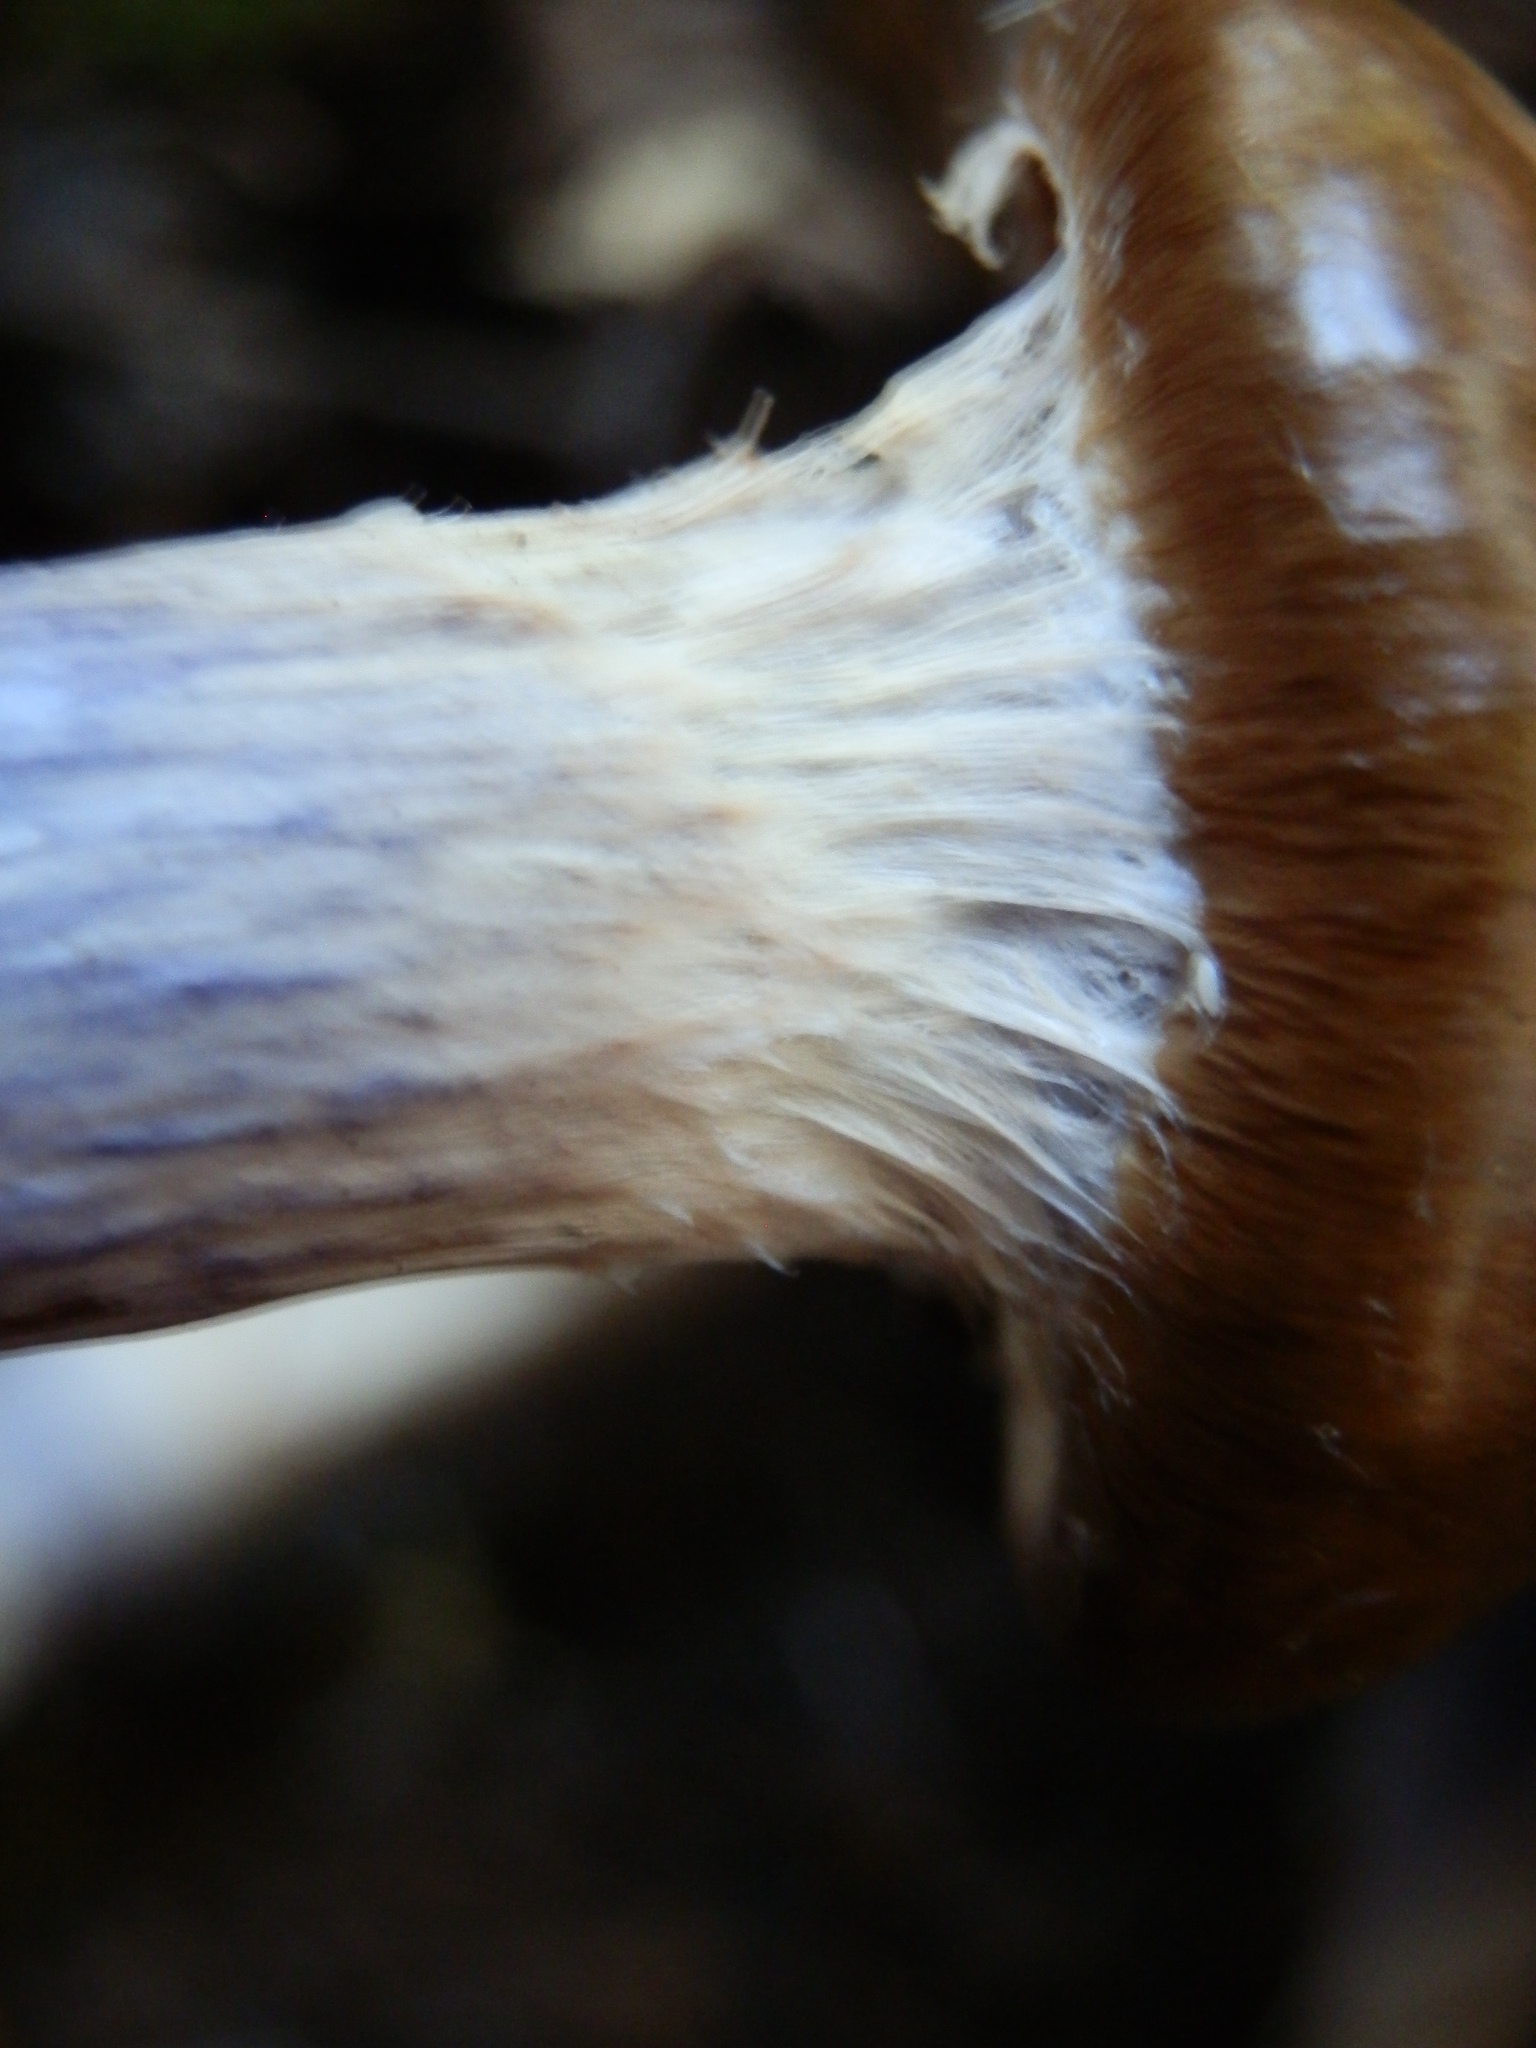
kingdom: Fungi
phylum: Basidiomycota
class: Agaricomycetes
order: Agaricales
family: Cortinariaceae
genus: Cortinarius
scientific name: Cortinarius vanduzerensis
